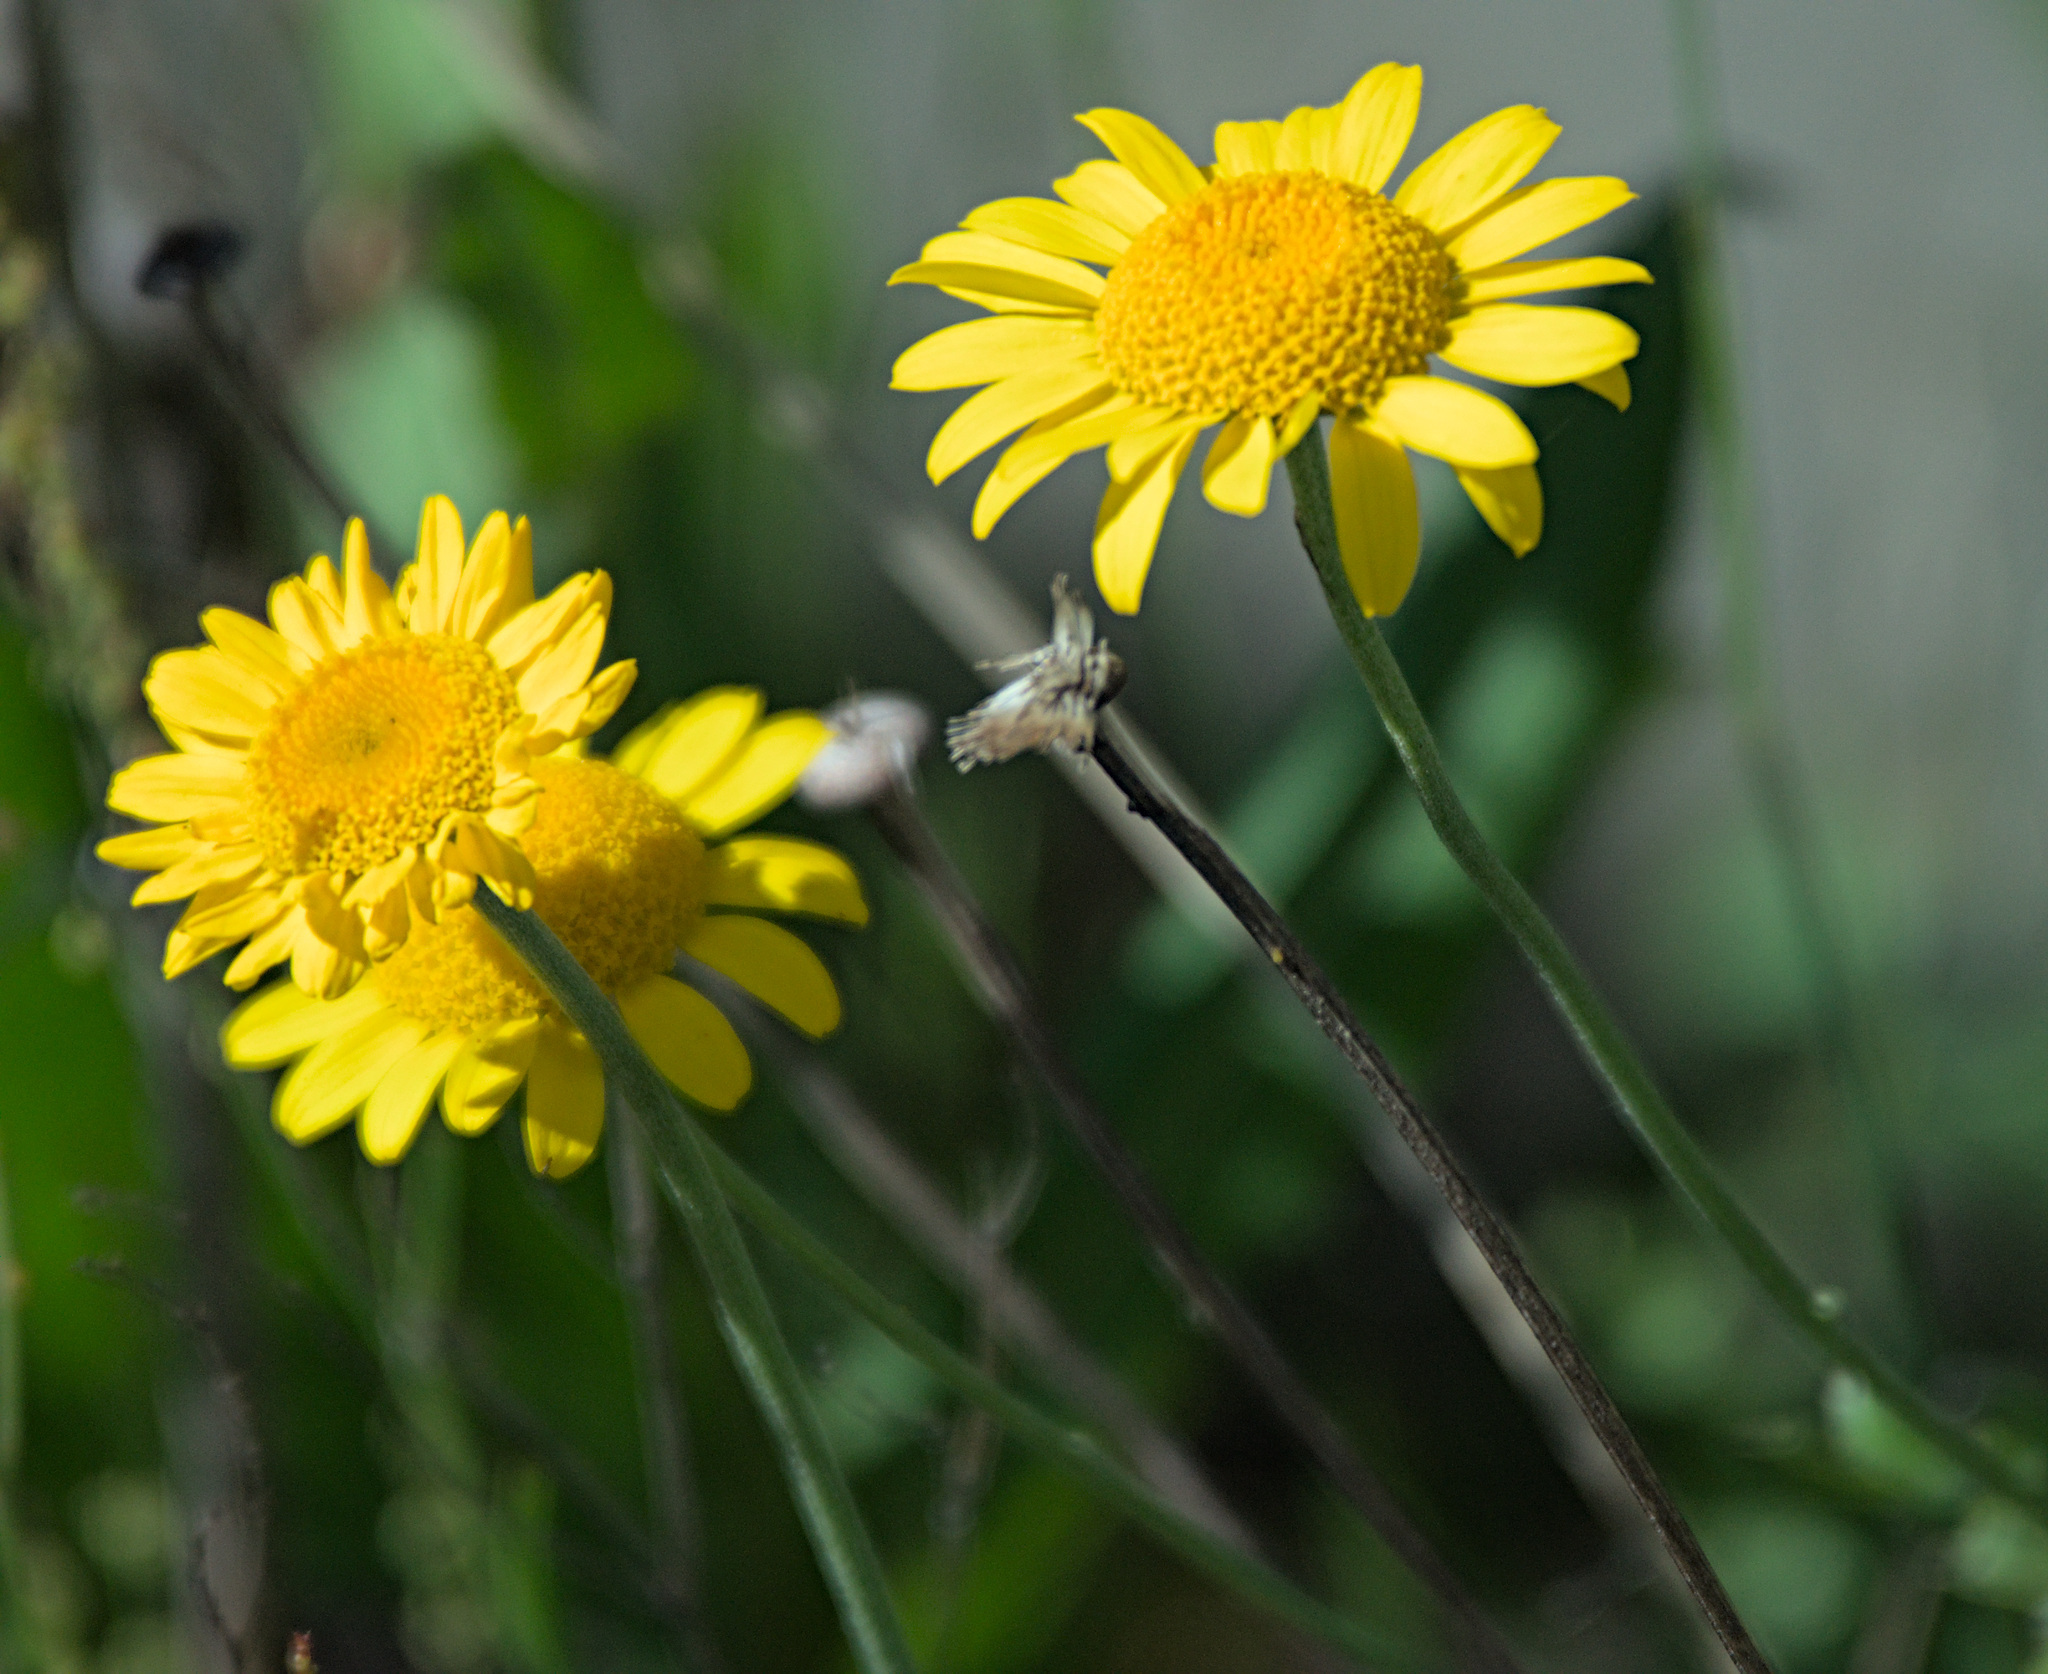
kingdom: Plantae
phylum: Tracheophyta
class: Magnoliopsida
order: Asterales
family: Asteraceae
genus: Cota
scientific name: Cota tinctoria
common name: Golden chamomile
